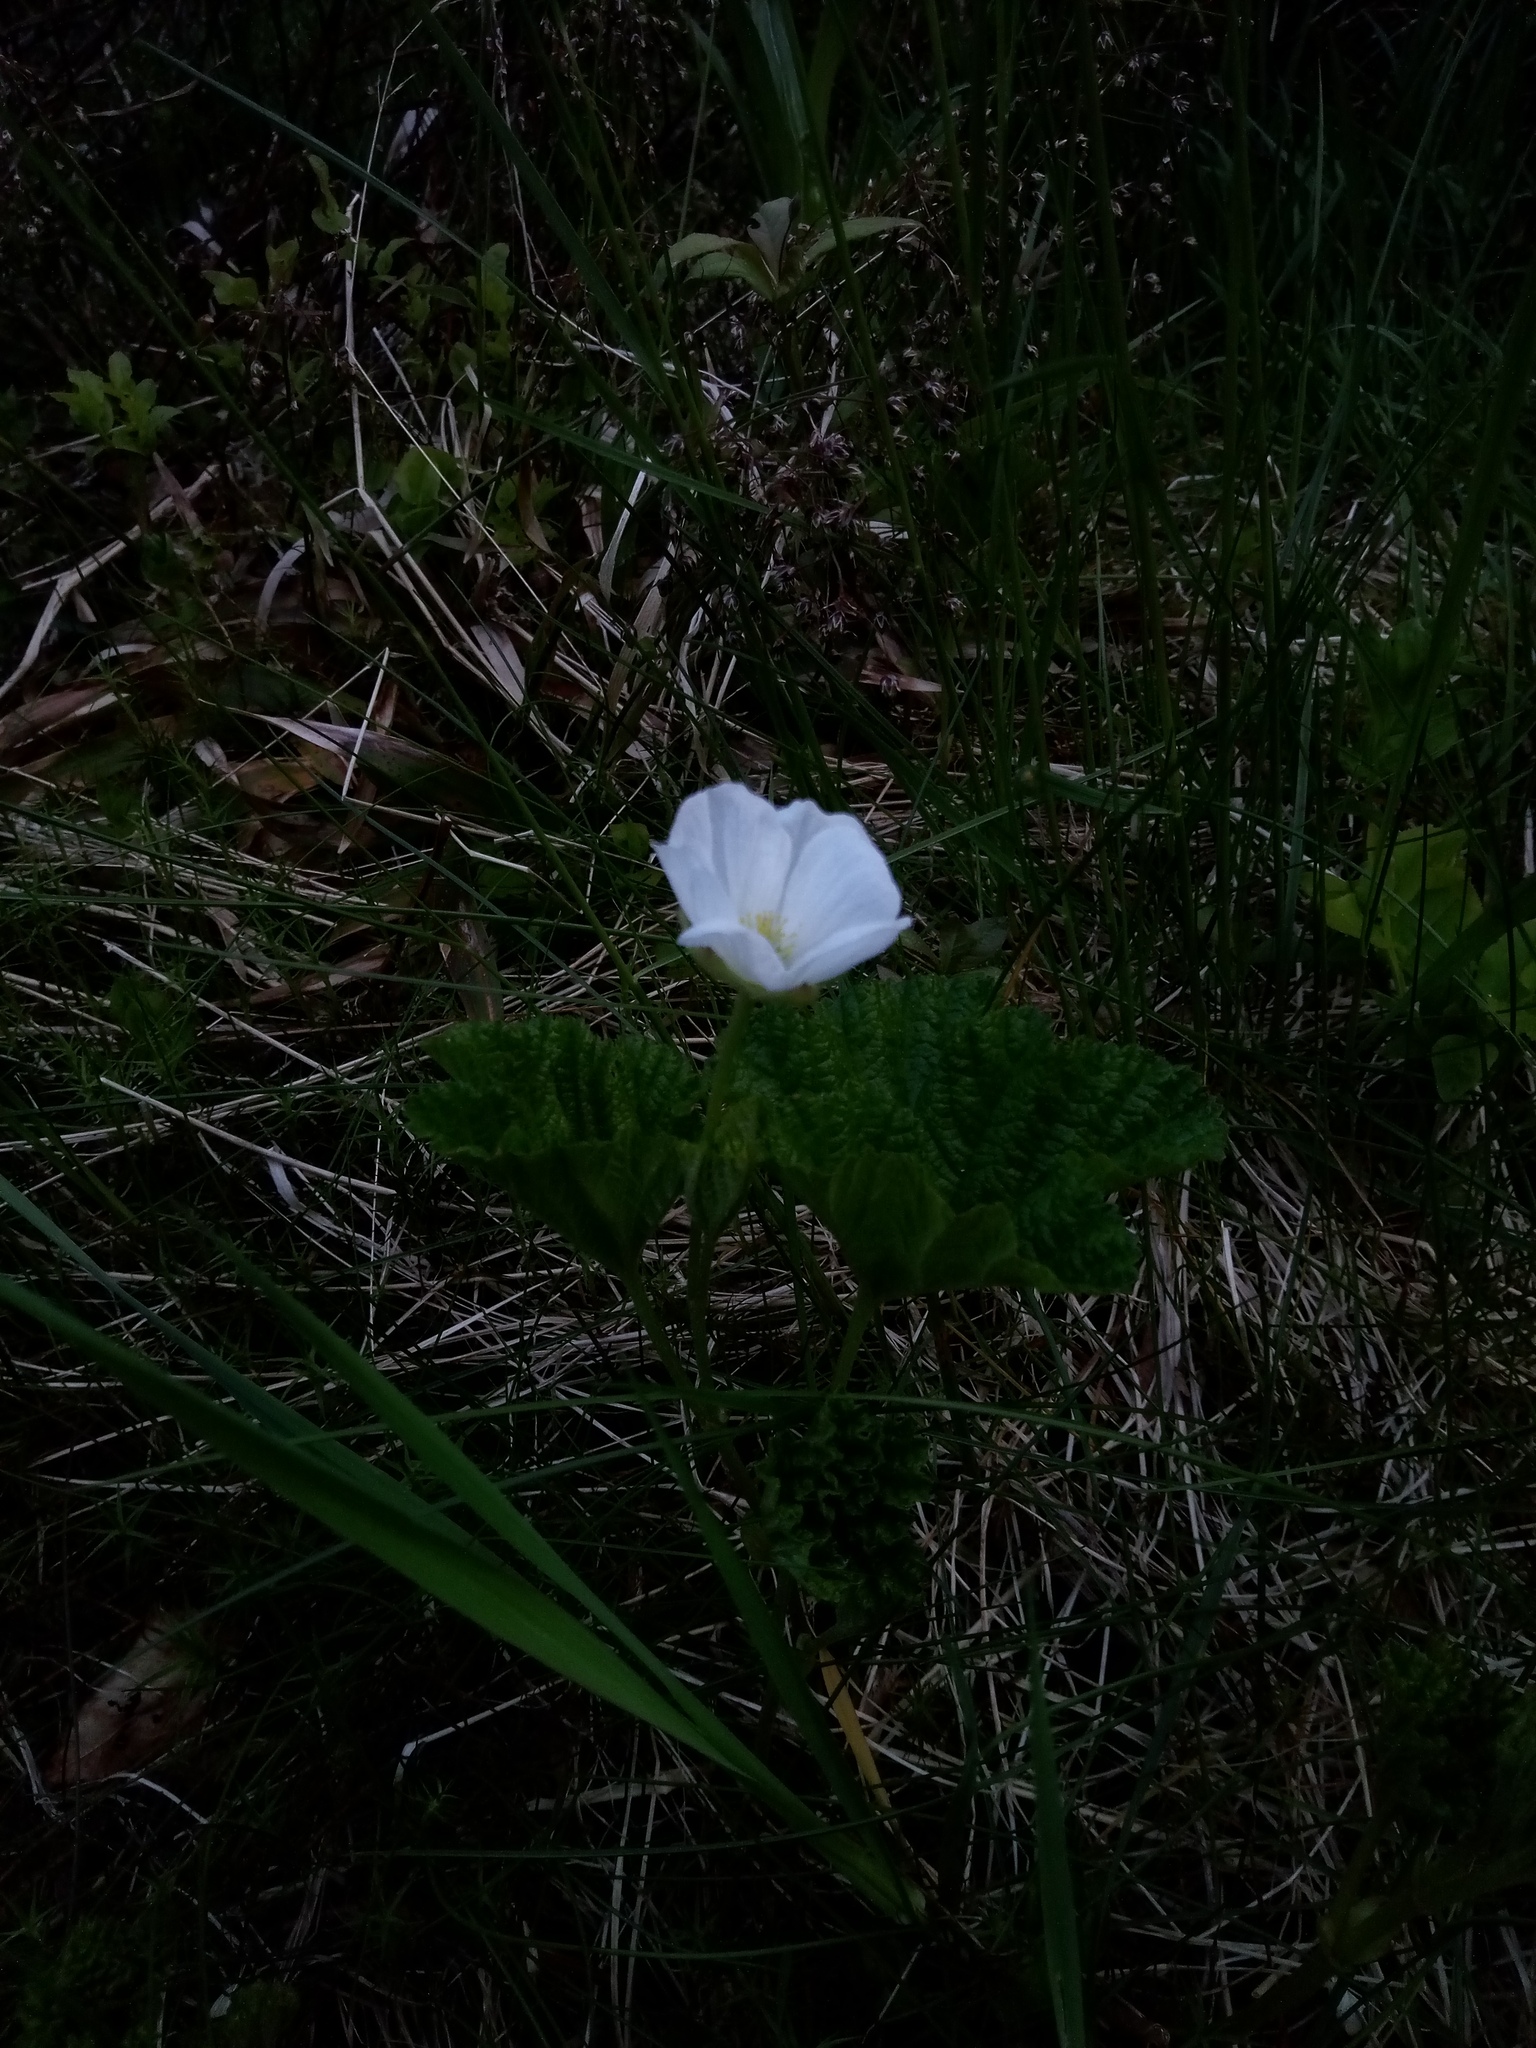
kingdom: Plantae
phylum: Tracheophyta
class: Magnoliopsida
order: Rosales
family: Rosaceae
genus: Rubus
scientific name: Rubus chamaemorus
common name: Cloudberry
